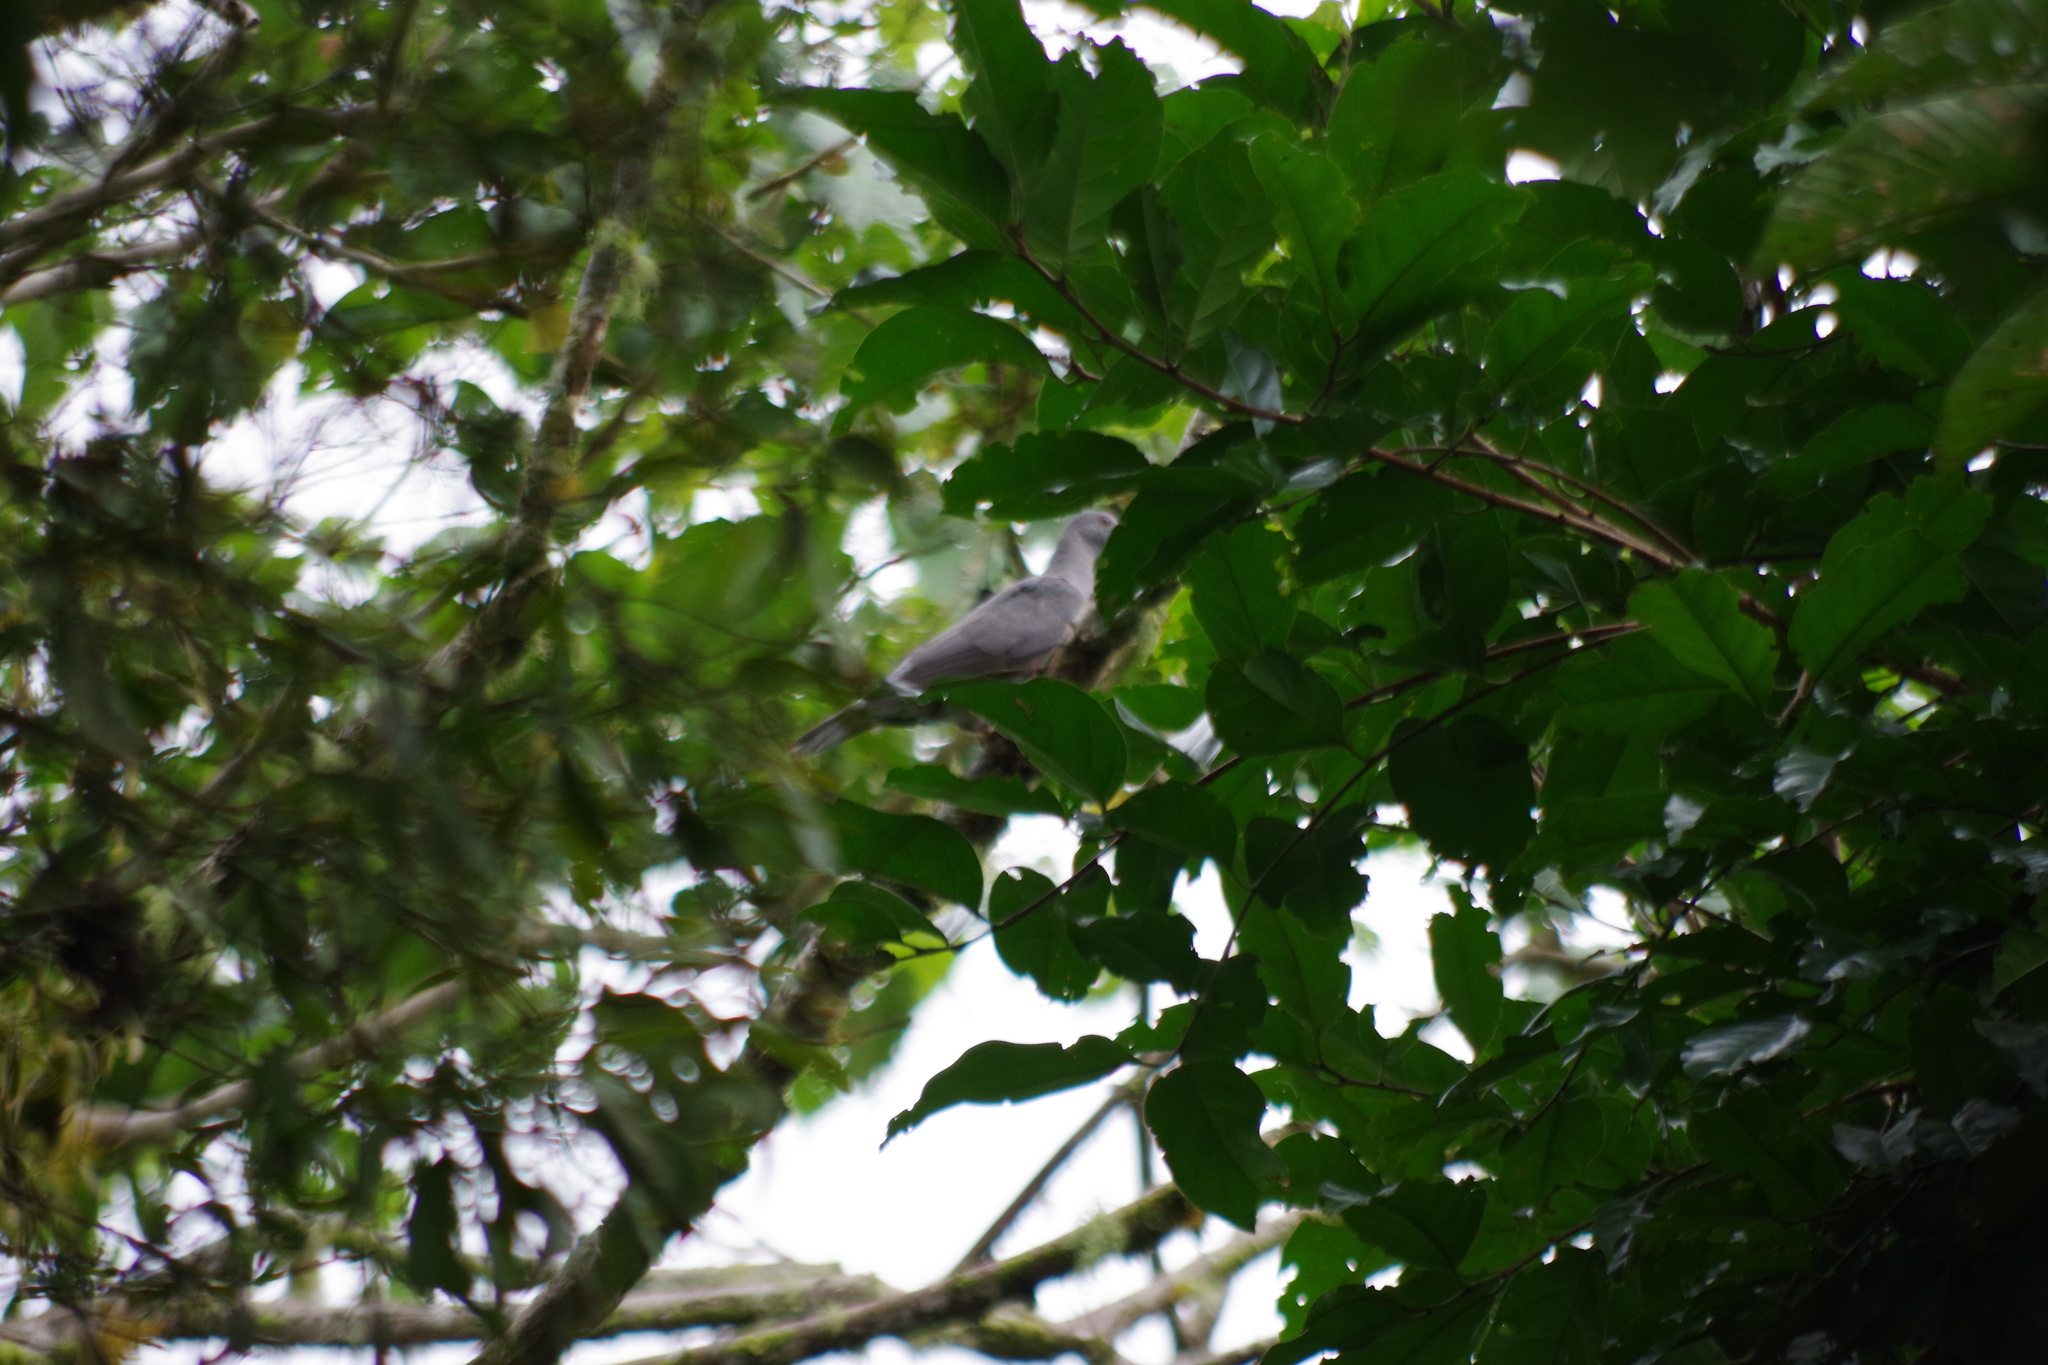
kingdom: Animalia
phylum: Chordata
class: Aves
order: Columbiformes
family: Columbidae
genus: Patagioenas
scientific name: Patagioenas fasciata
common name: Band-tailed pigeon
